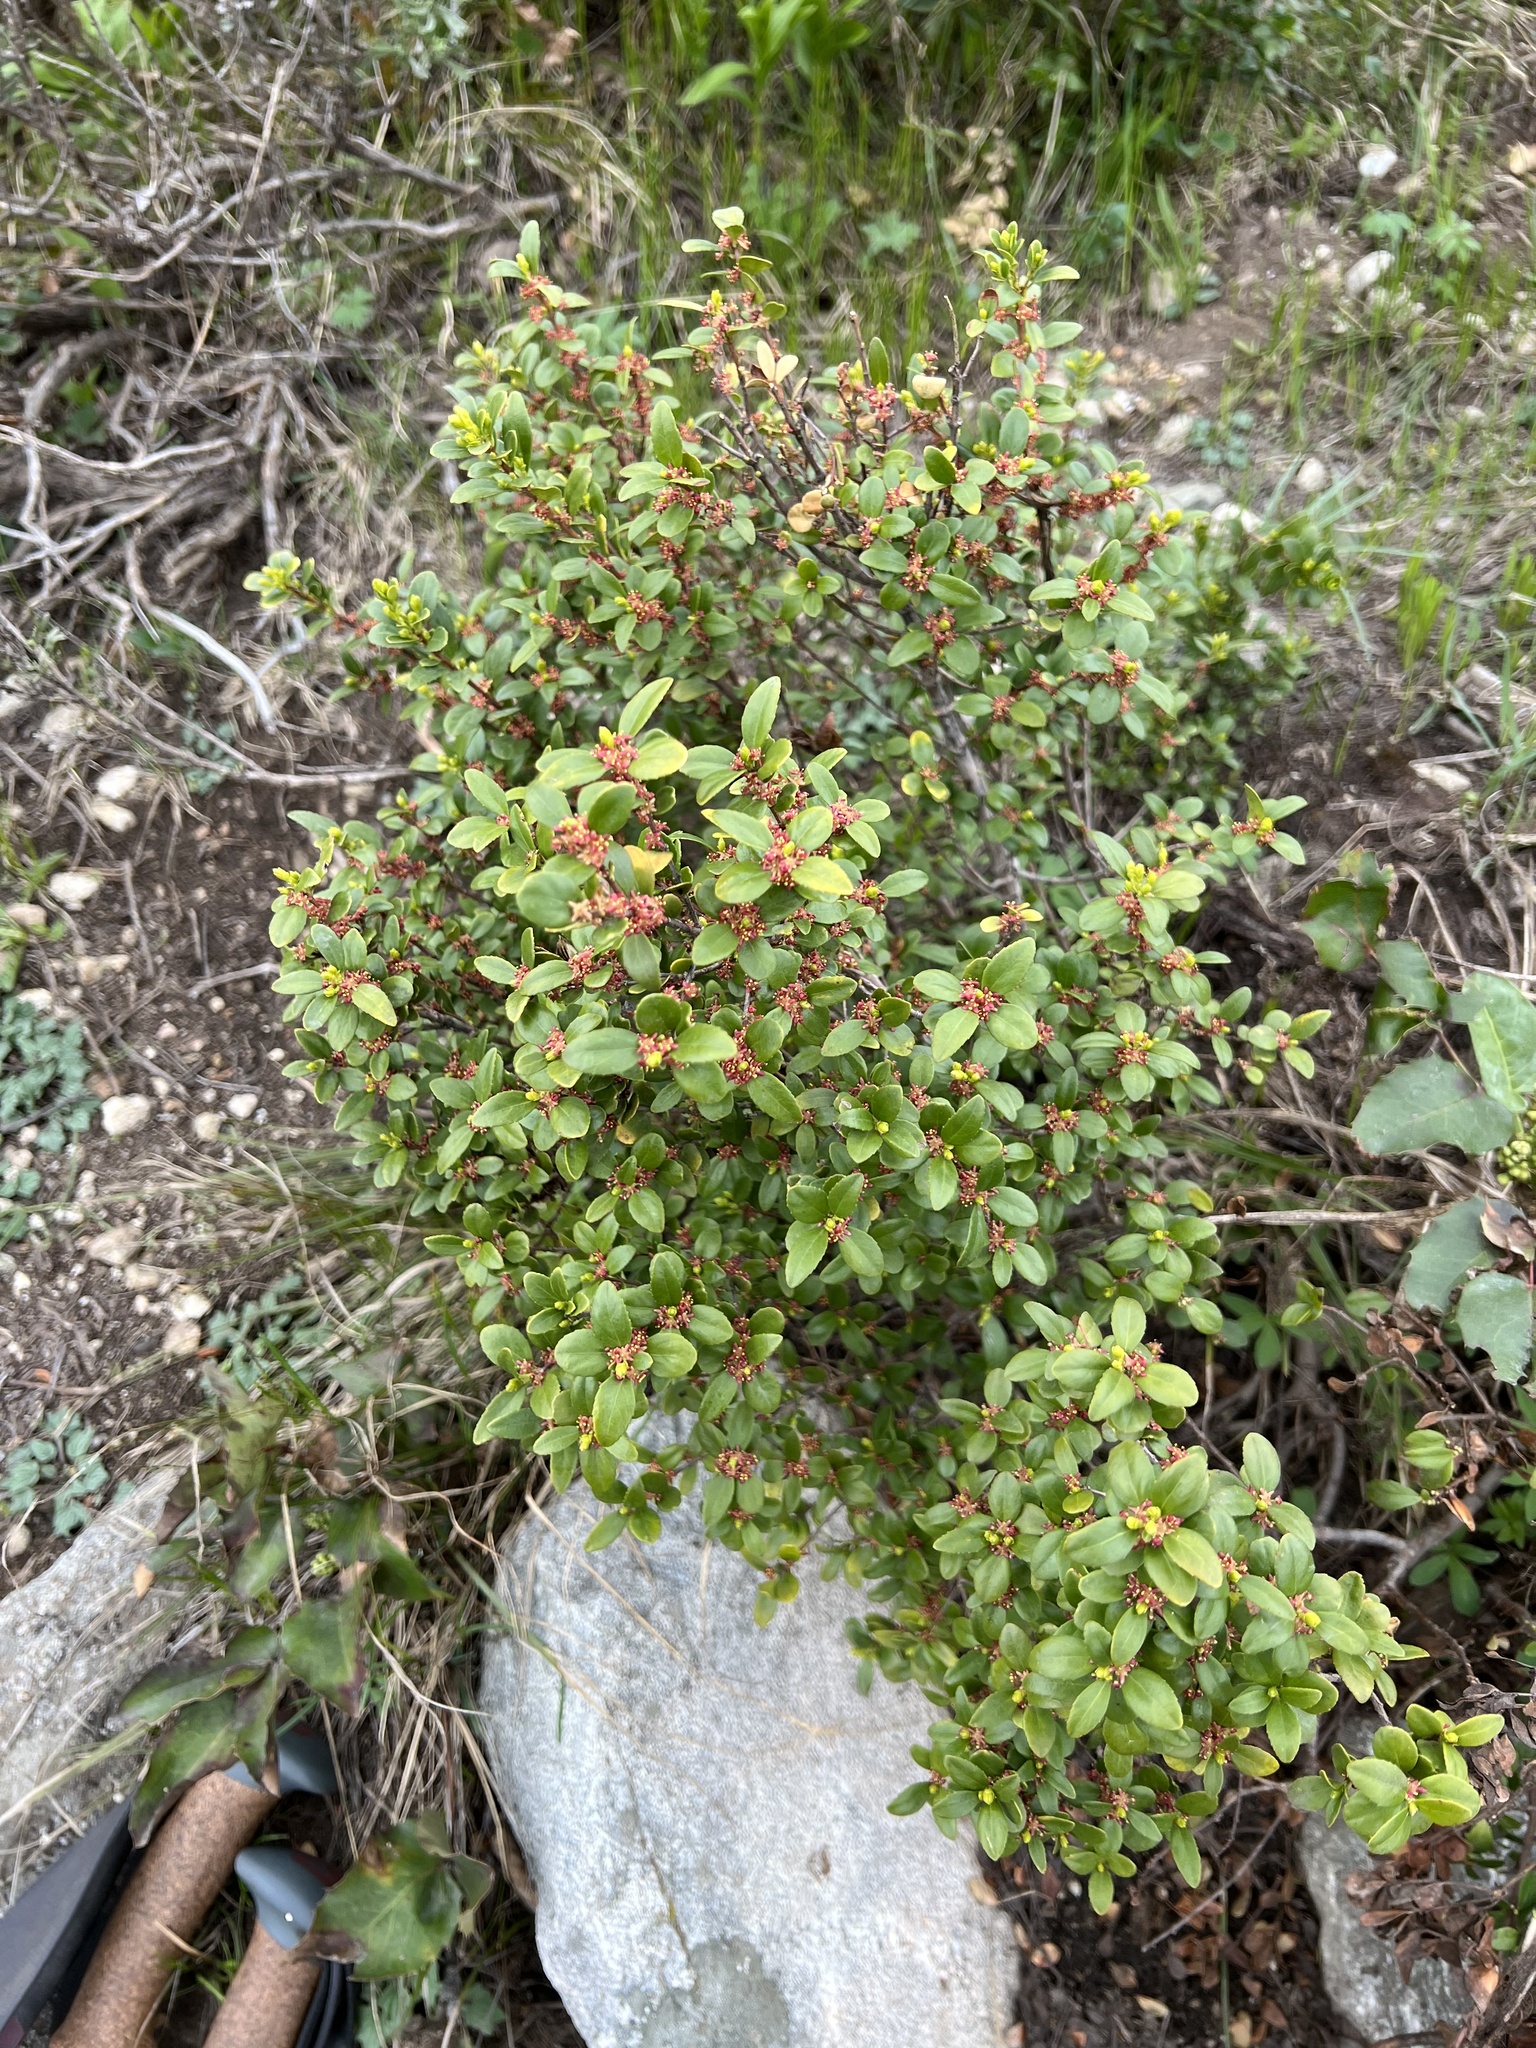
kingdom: Plantae
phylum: Tracheophyta
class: Magnoliopsida
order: Celastrales
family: Celastraceae
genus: Paxistima
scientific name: Paxistima myrsinites
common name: Mountain-lover
